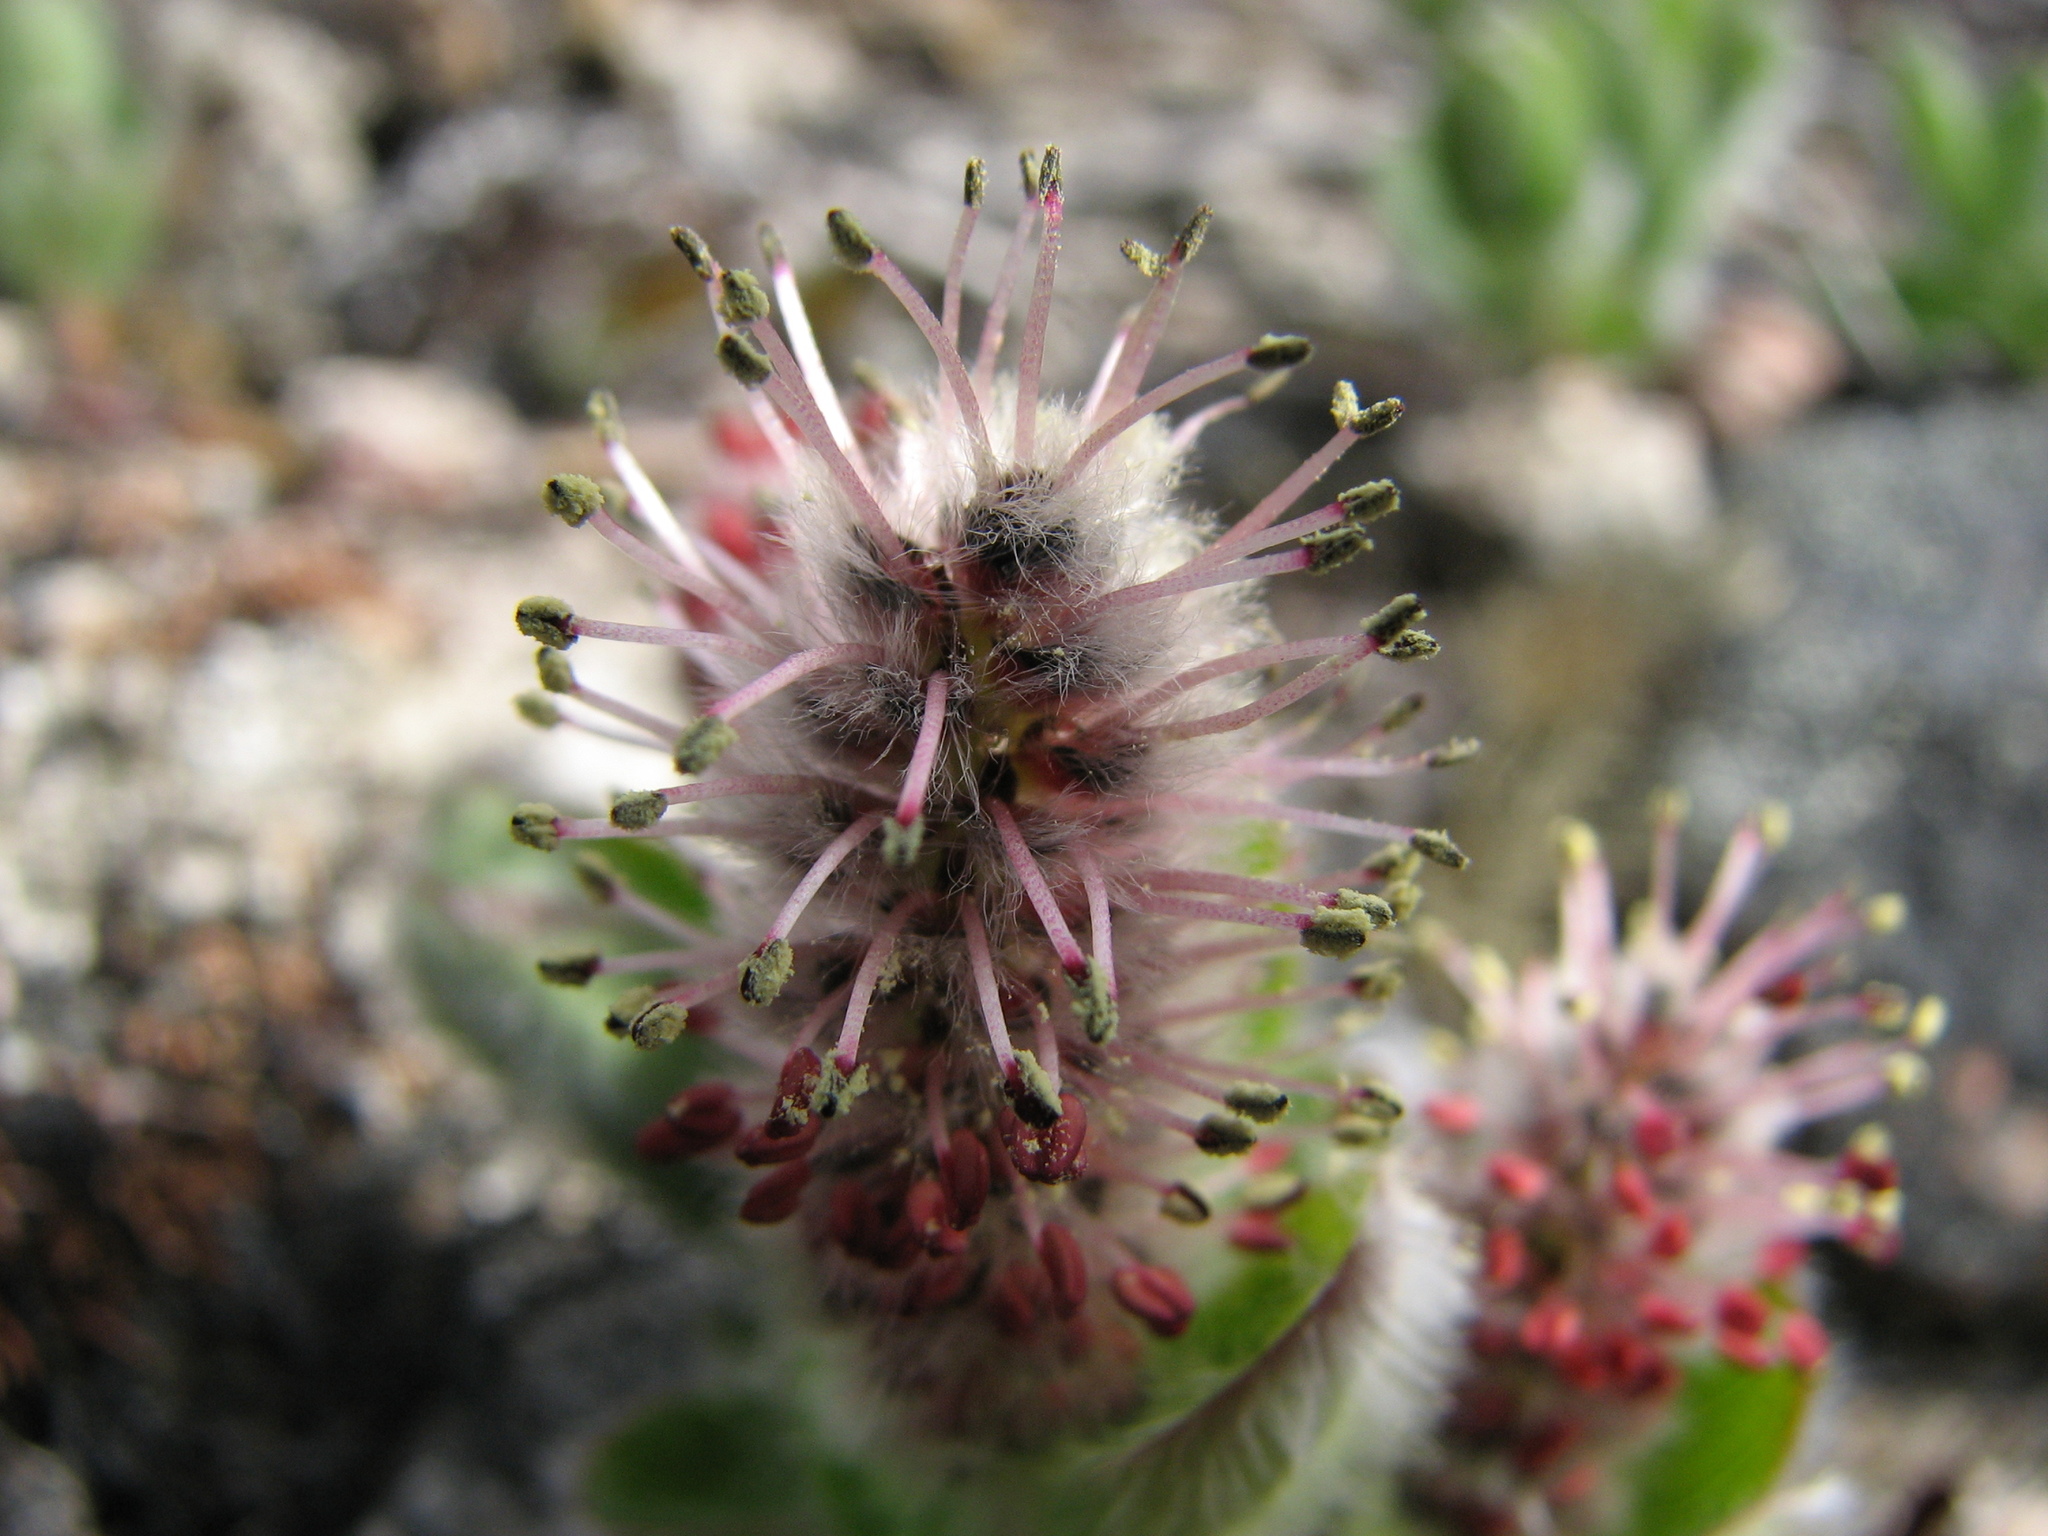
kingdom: Plantae
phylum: Tracheophyta
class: Magnoliopsida
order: Malpighiales
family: Salicaceae
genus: Salix
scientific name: Salix arctica
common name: Arctic willow
